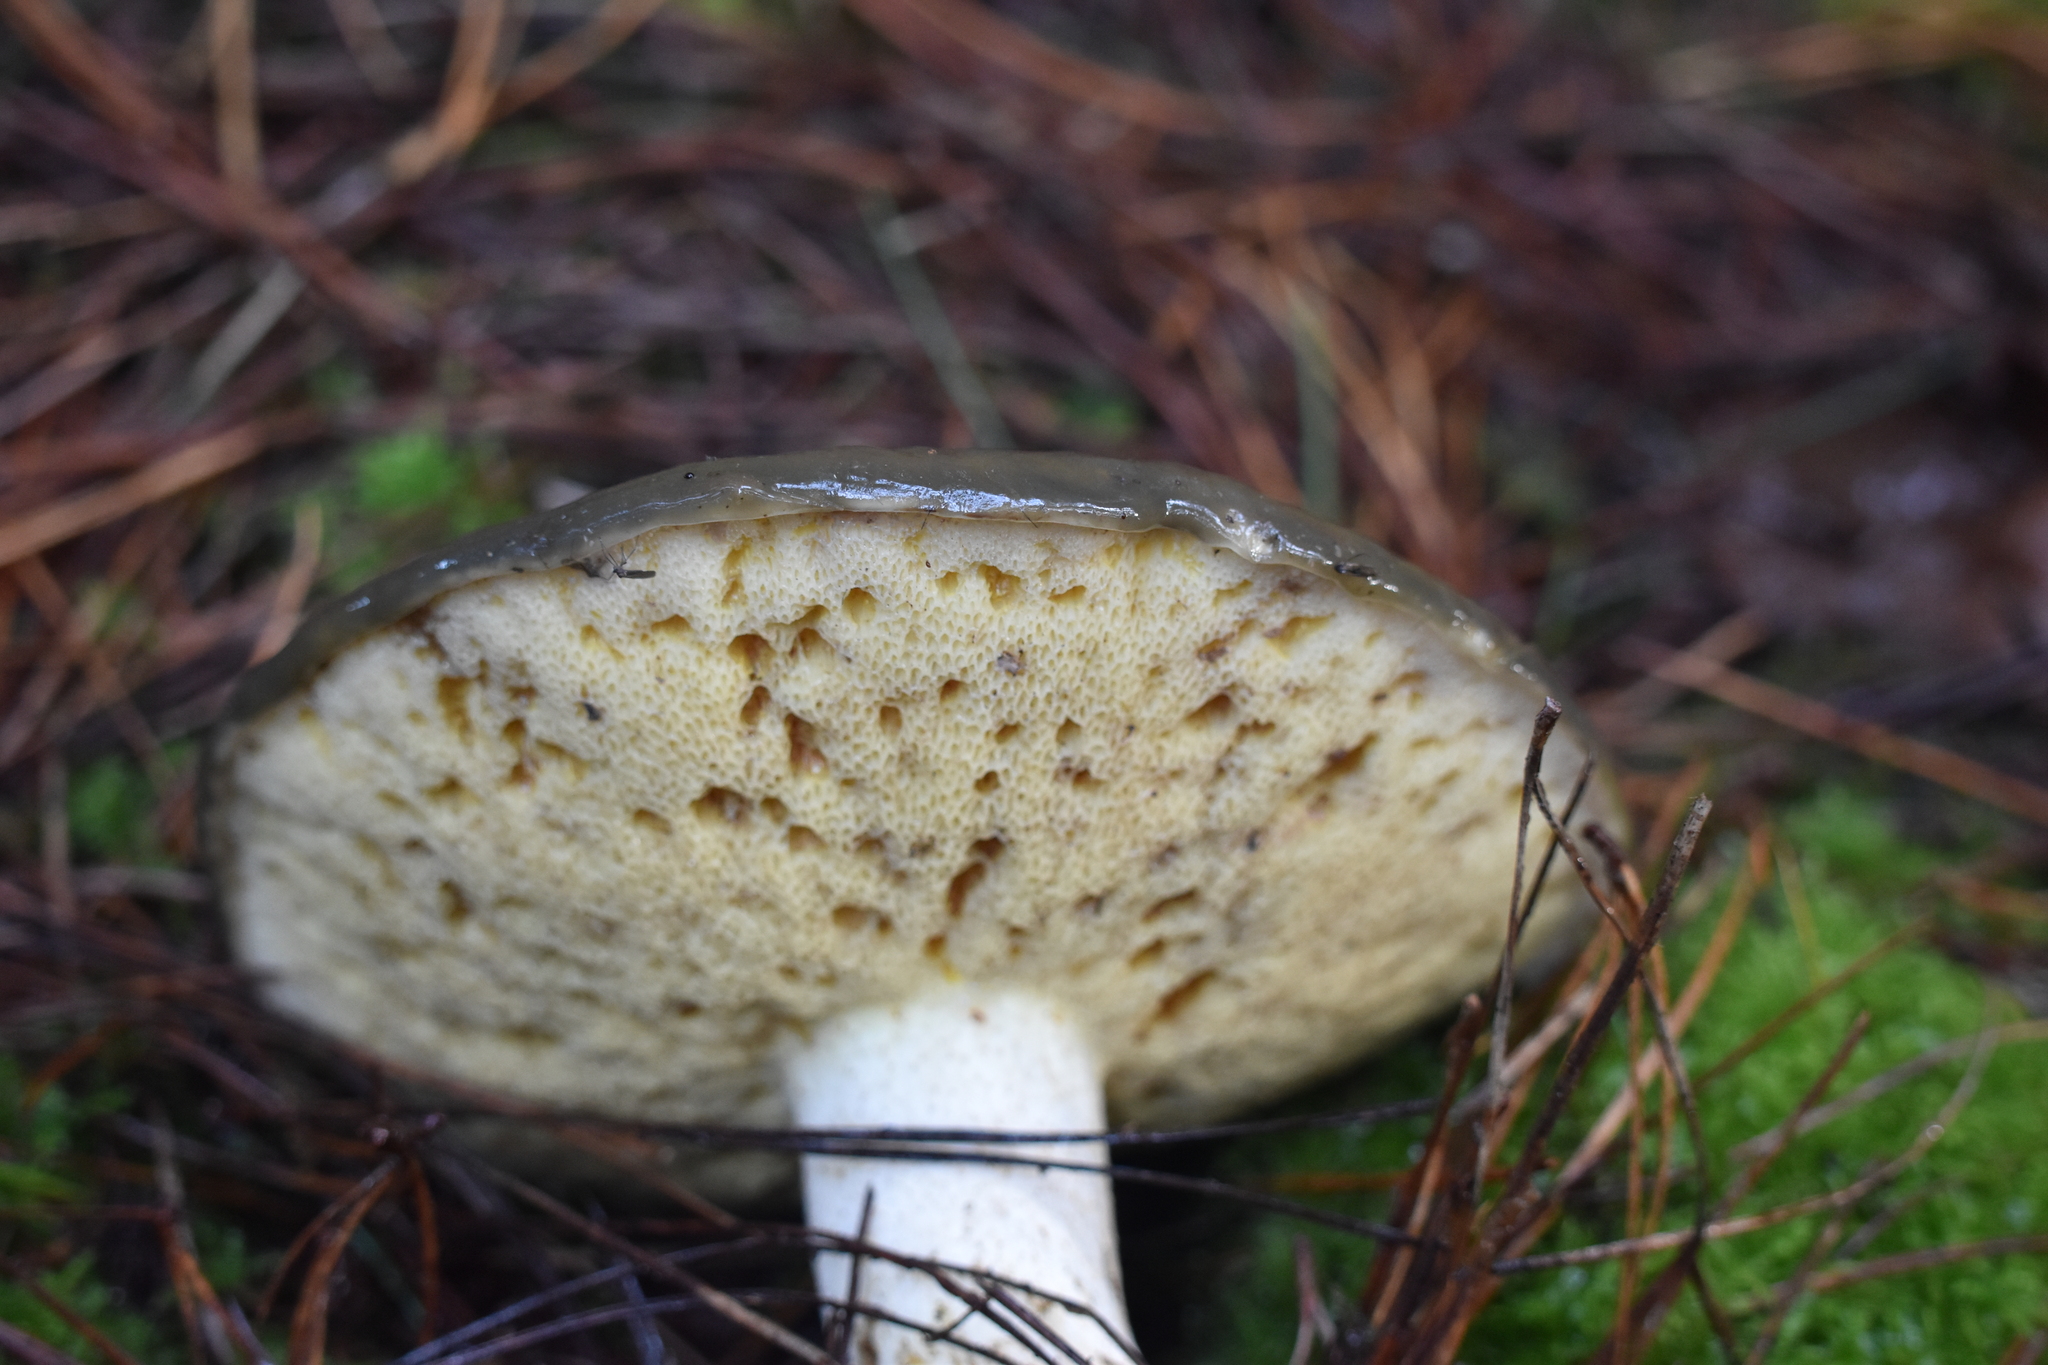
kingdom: Fungi
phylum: Basidiomycota
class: Agaricomycetes
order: Boletales
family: Suillaceae
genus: Suillus
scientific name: Suillus pungens
